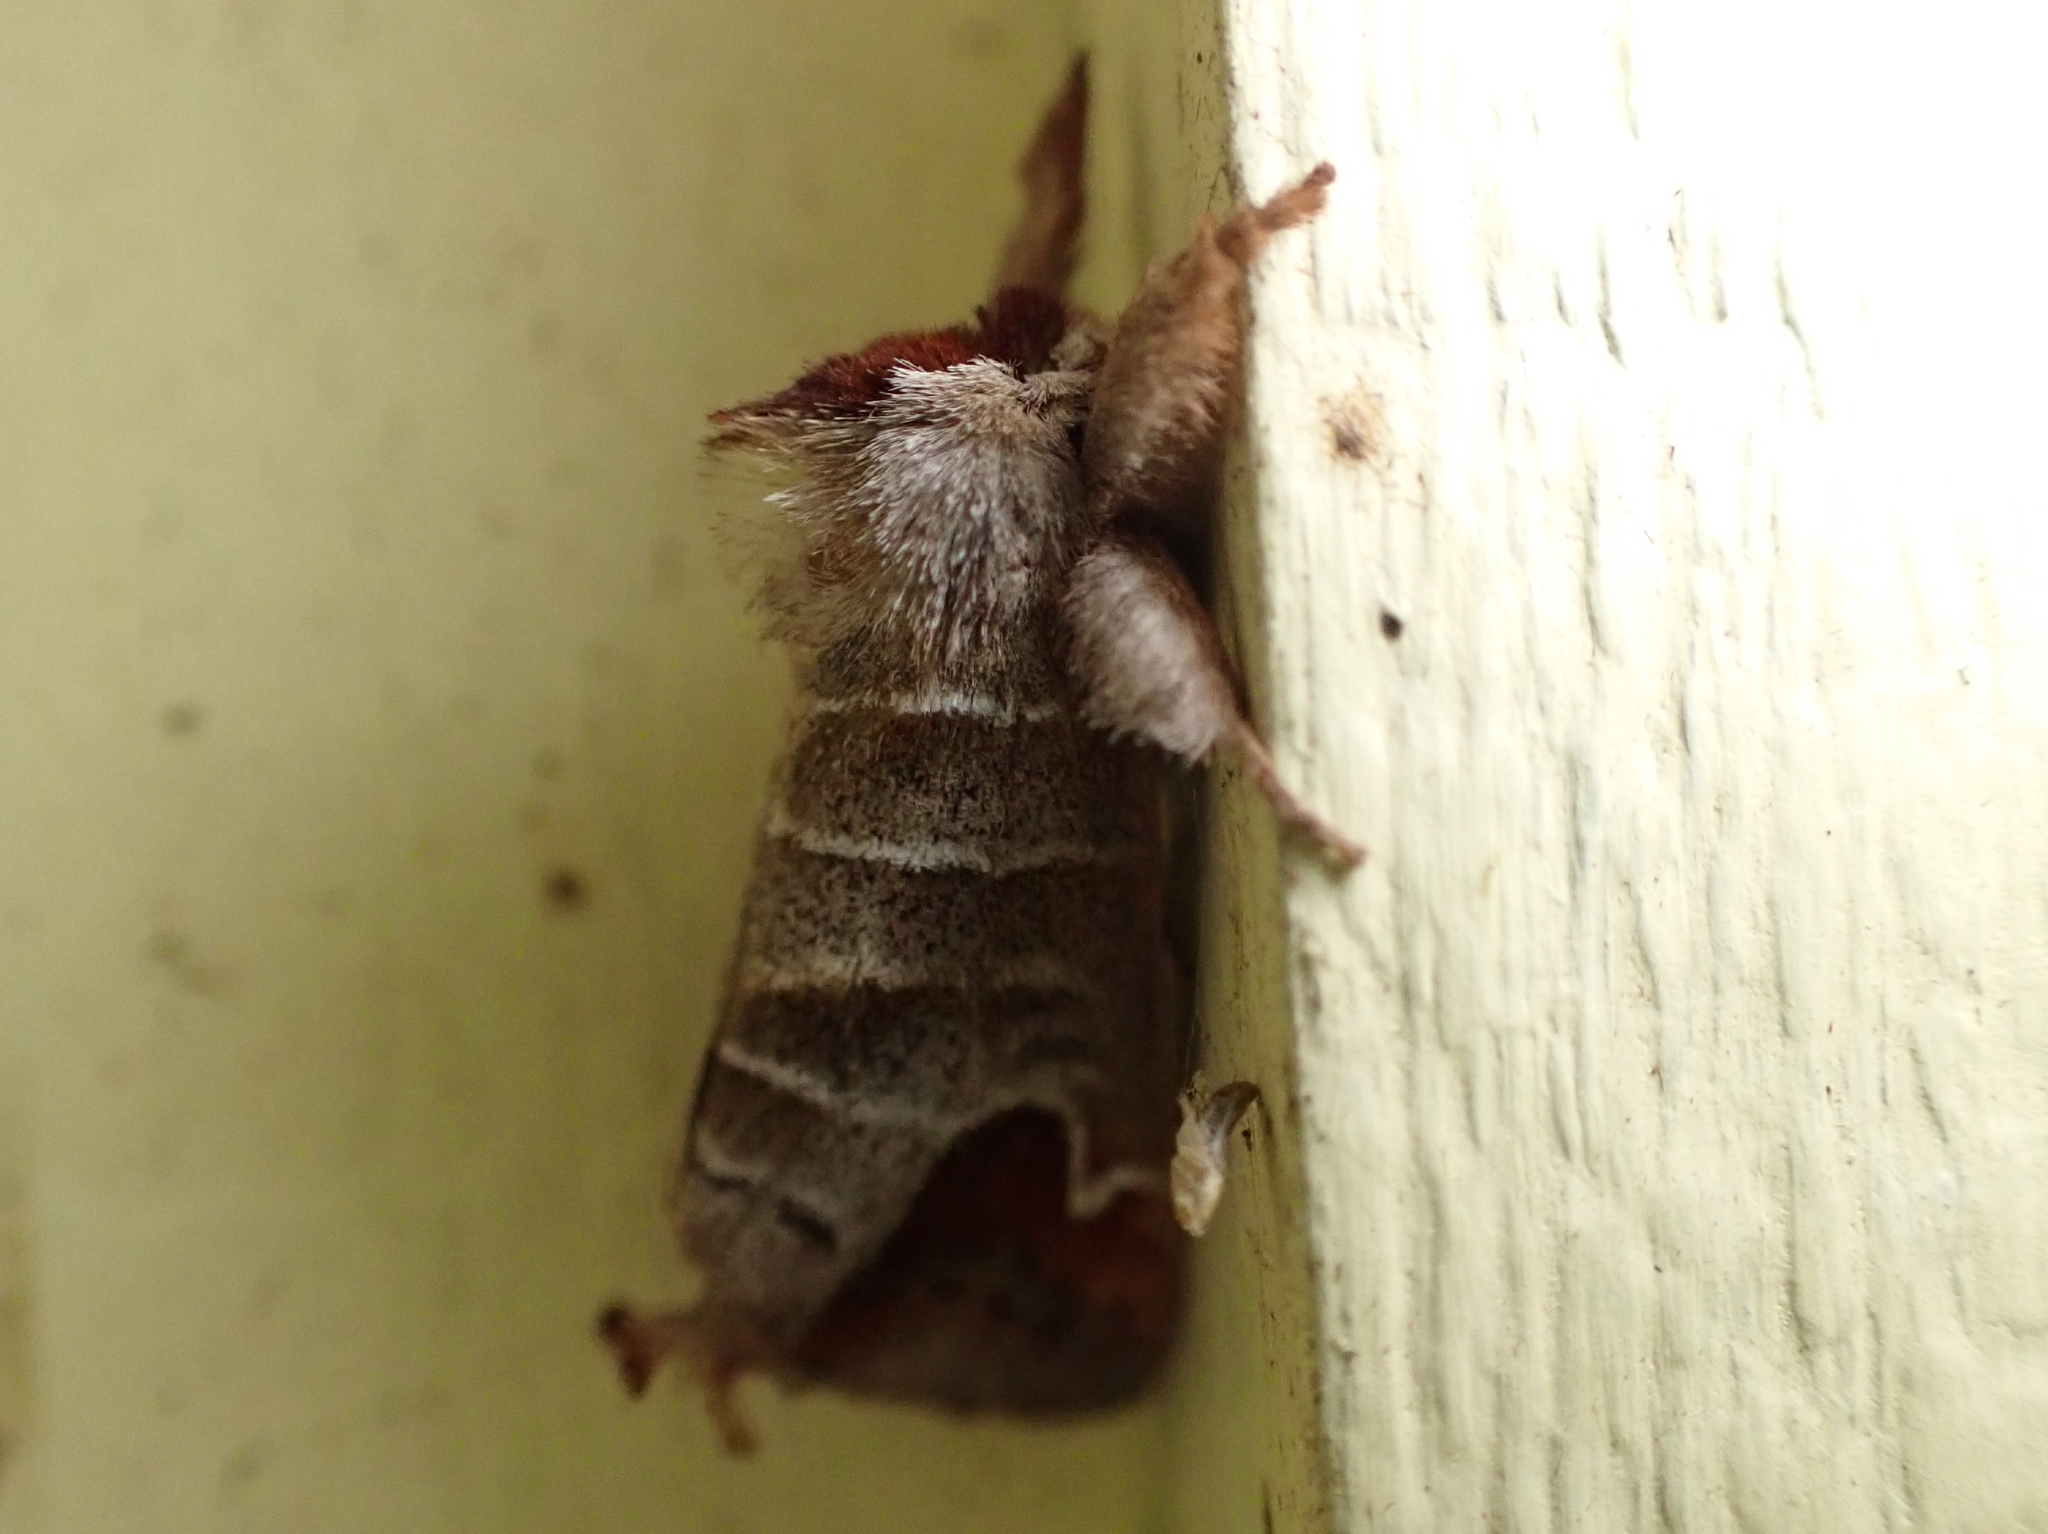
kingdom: Animalia
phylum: Arthropoda
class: Insecta
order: Lepidoptera
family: Notodontidae
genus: Clostera
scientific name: Clostera albosigma
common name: Sigmoid prominent
